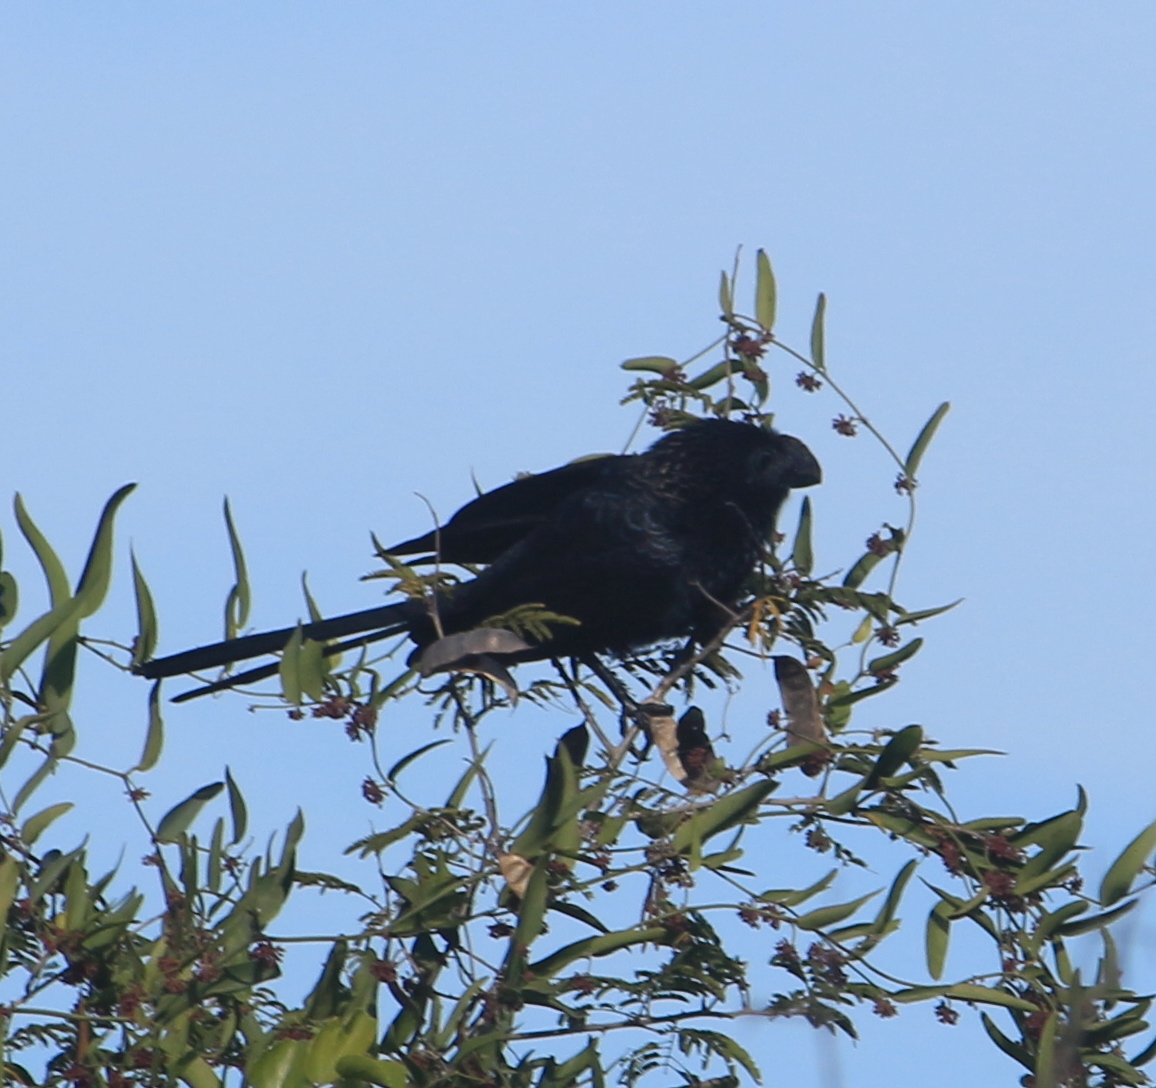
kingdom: Animalia
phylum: Chordata
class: Aves
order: Cuculiformes
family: Cuculidae
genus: Crotophaga
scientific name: Crotophaga ani
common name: Smooth-billed ani
